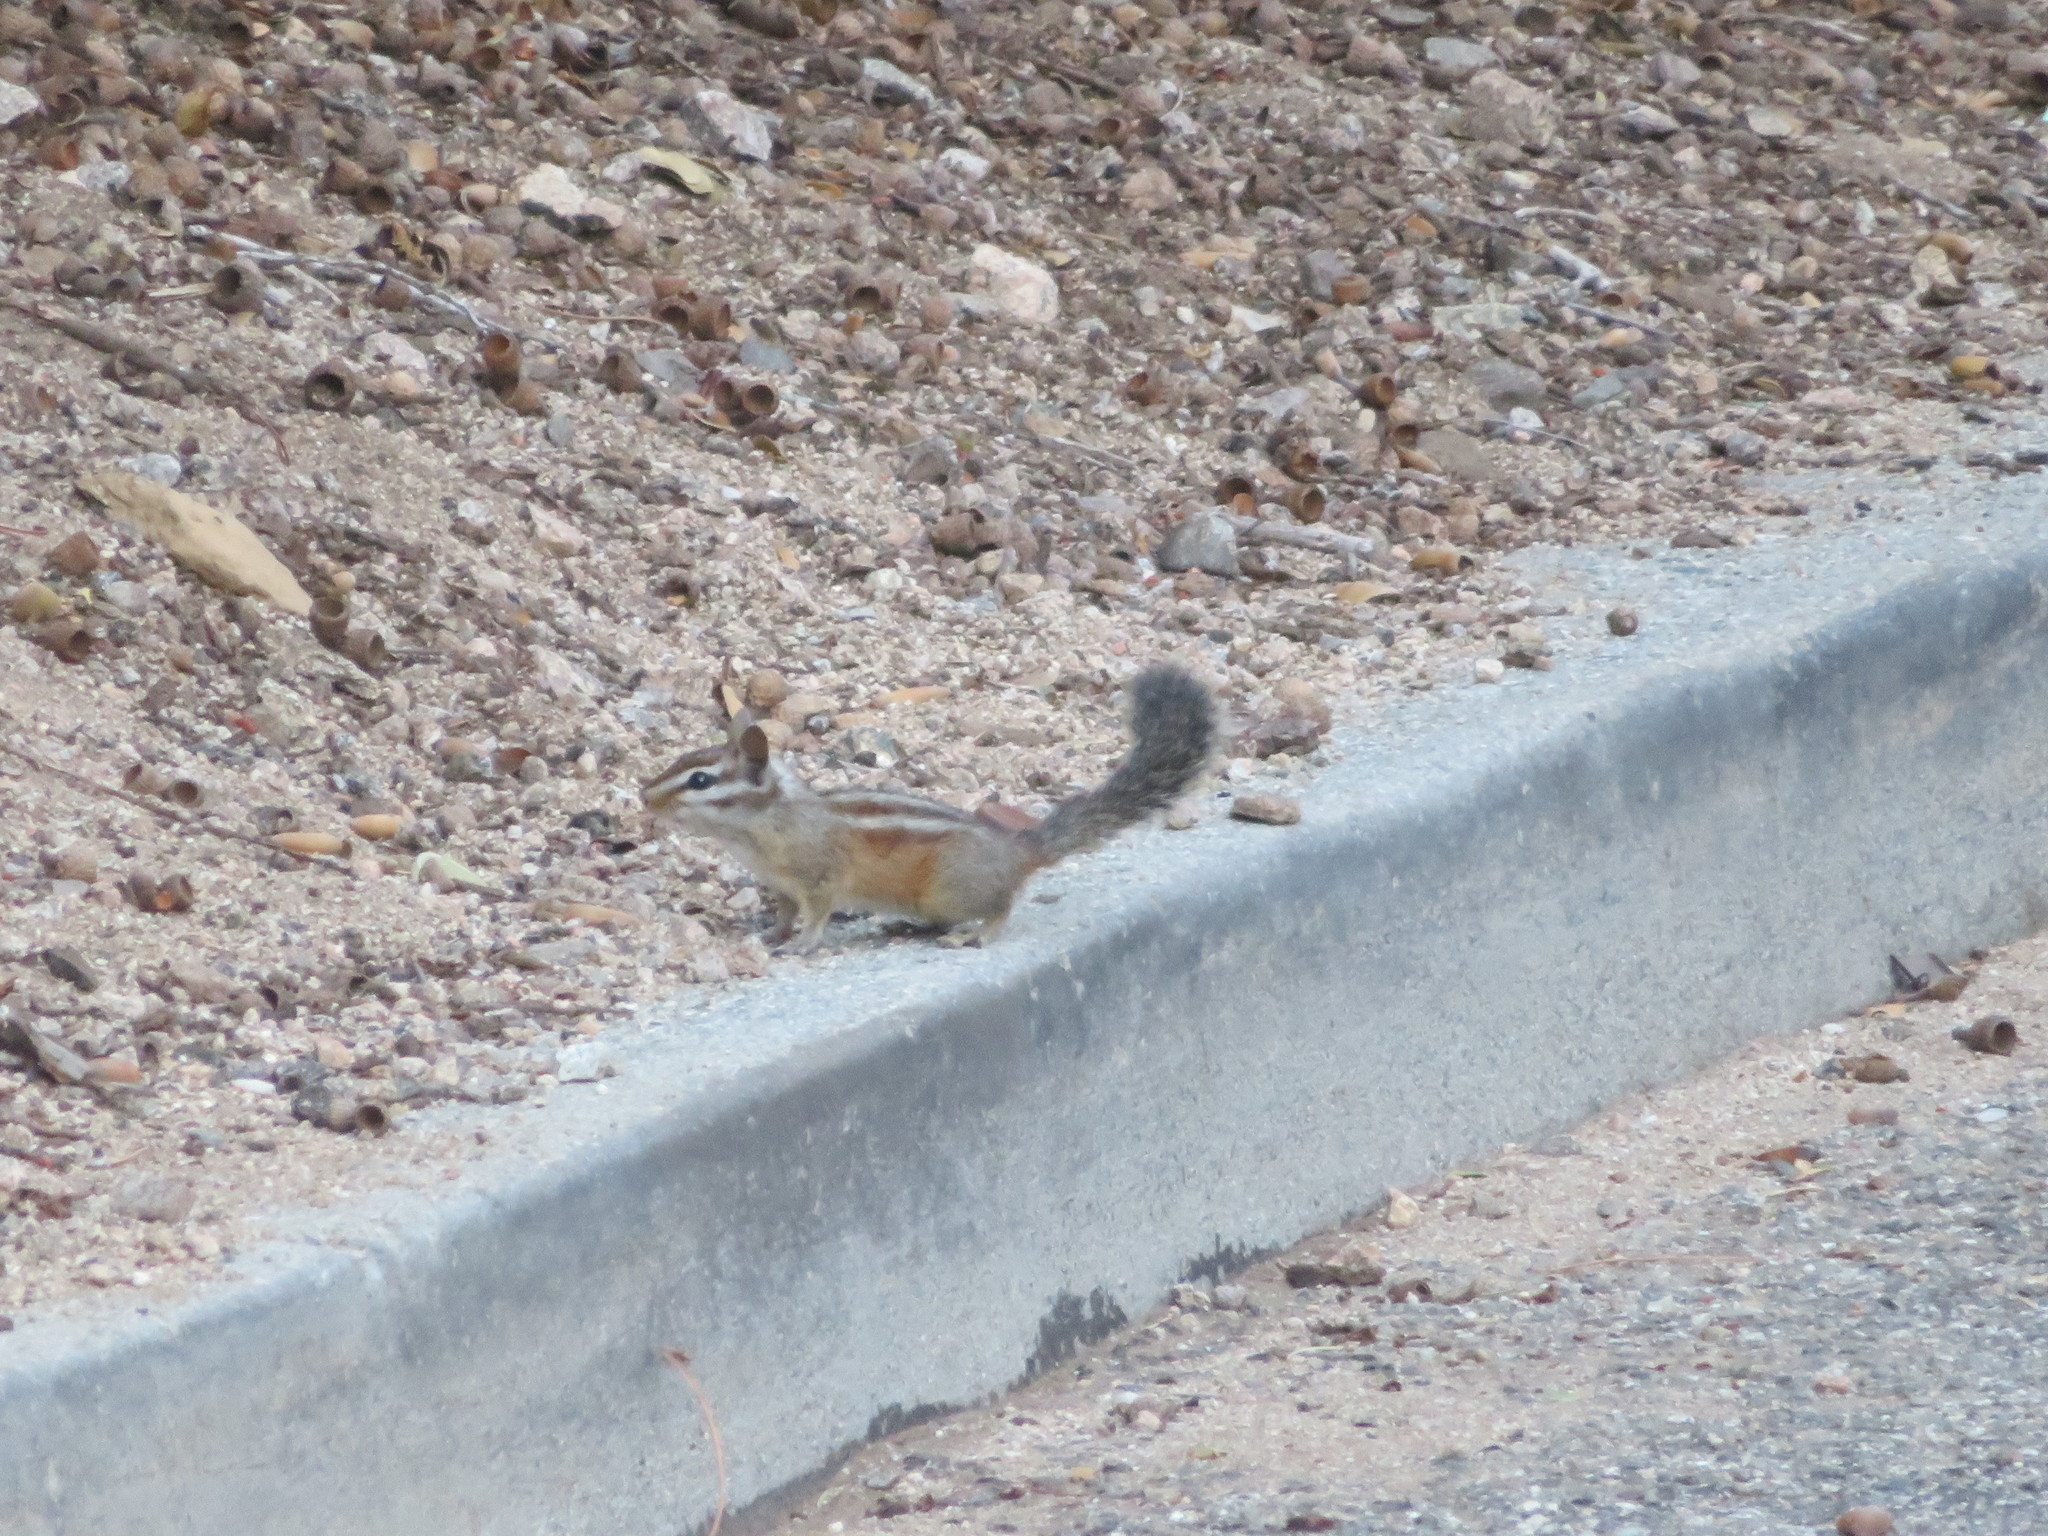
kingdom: Animalia
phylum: Chordata
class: Mammalia
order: Rodentia
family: Sciuridae
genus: Tamias
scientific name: Tamias merriami
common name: Merriam's chipmunk
